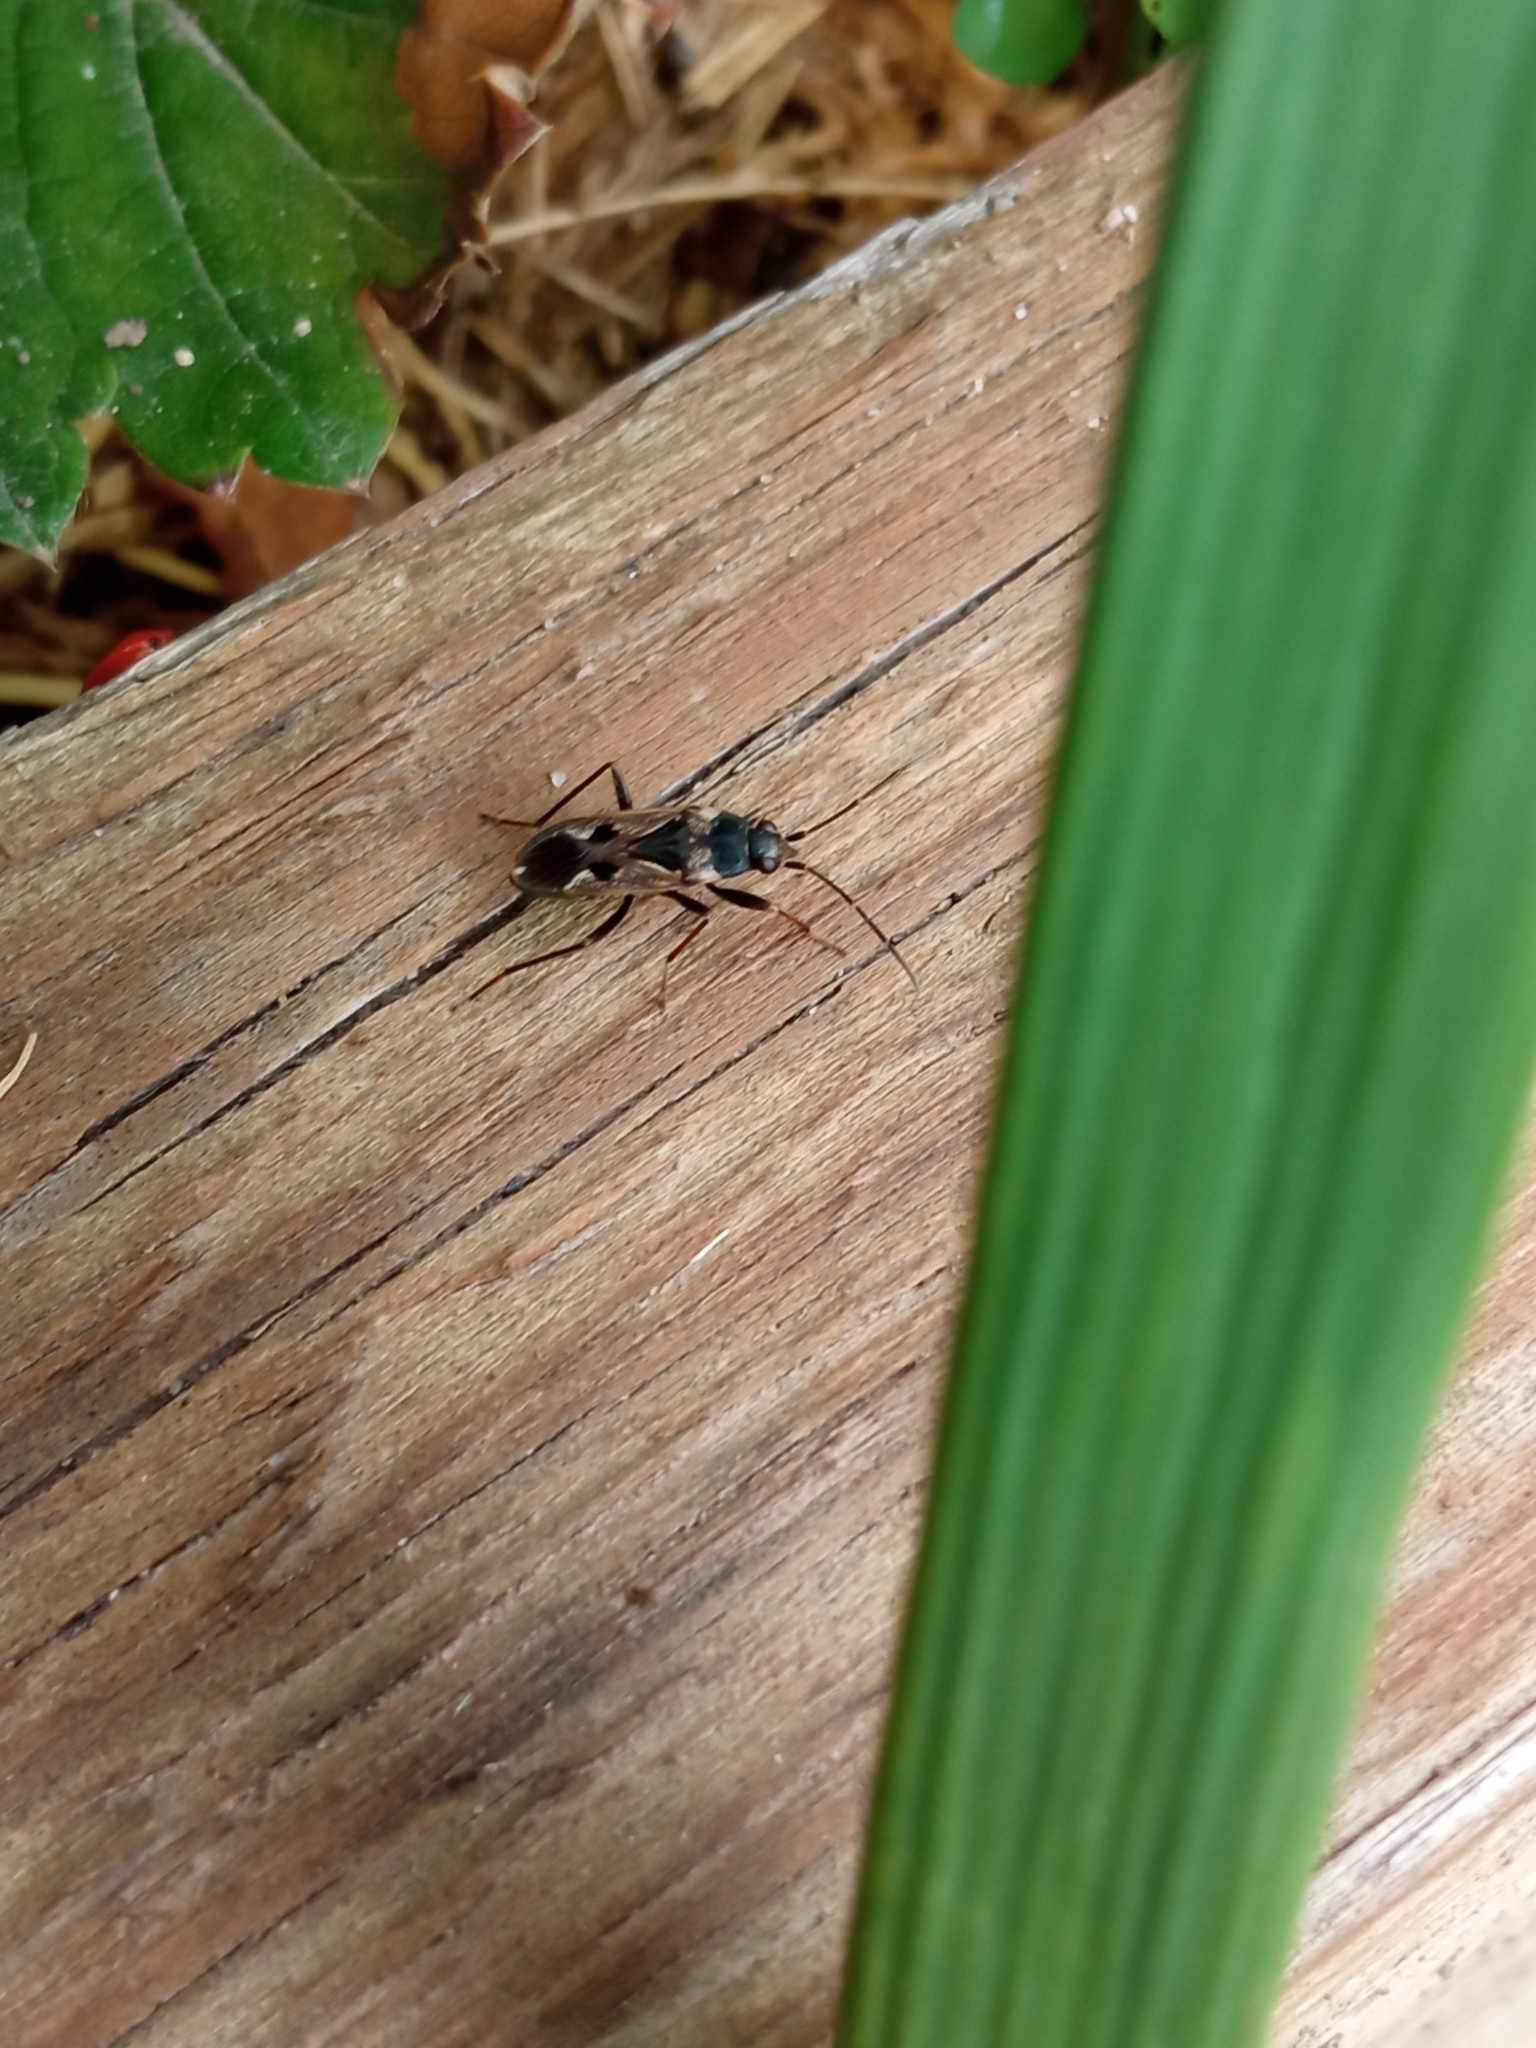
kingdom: Animalia
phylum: Arthropoda
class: Insecta
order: Hemiptera
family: Rhyparochromidae
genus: Rhyparochromus
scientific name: Rhyparochromus vulgaris
